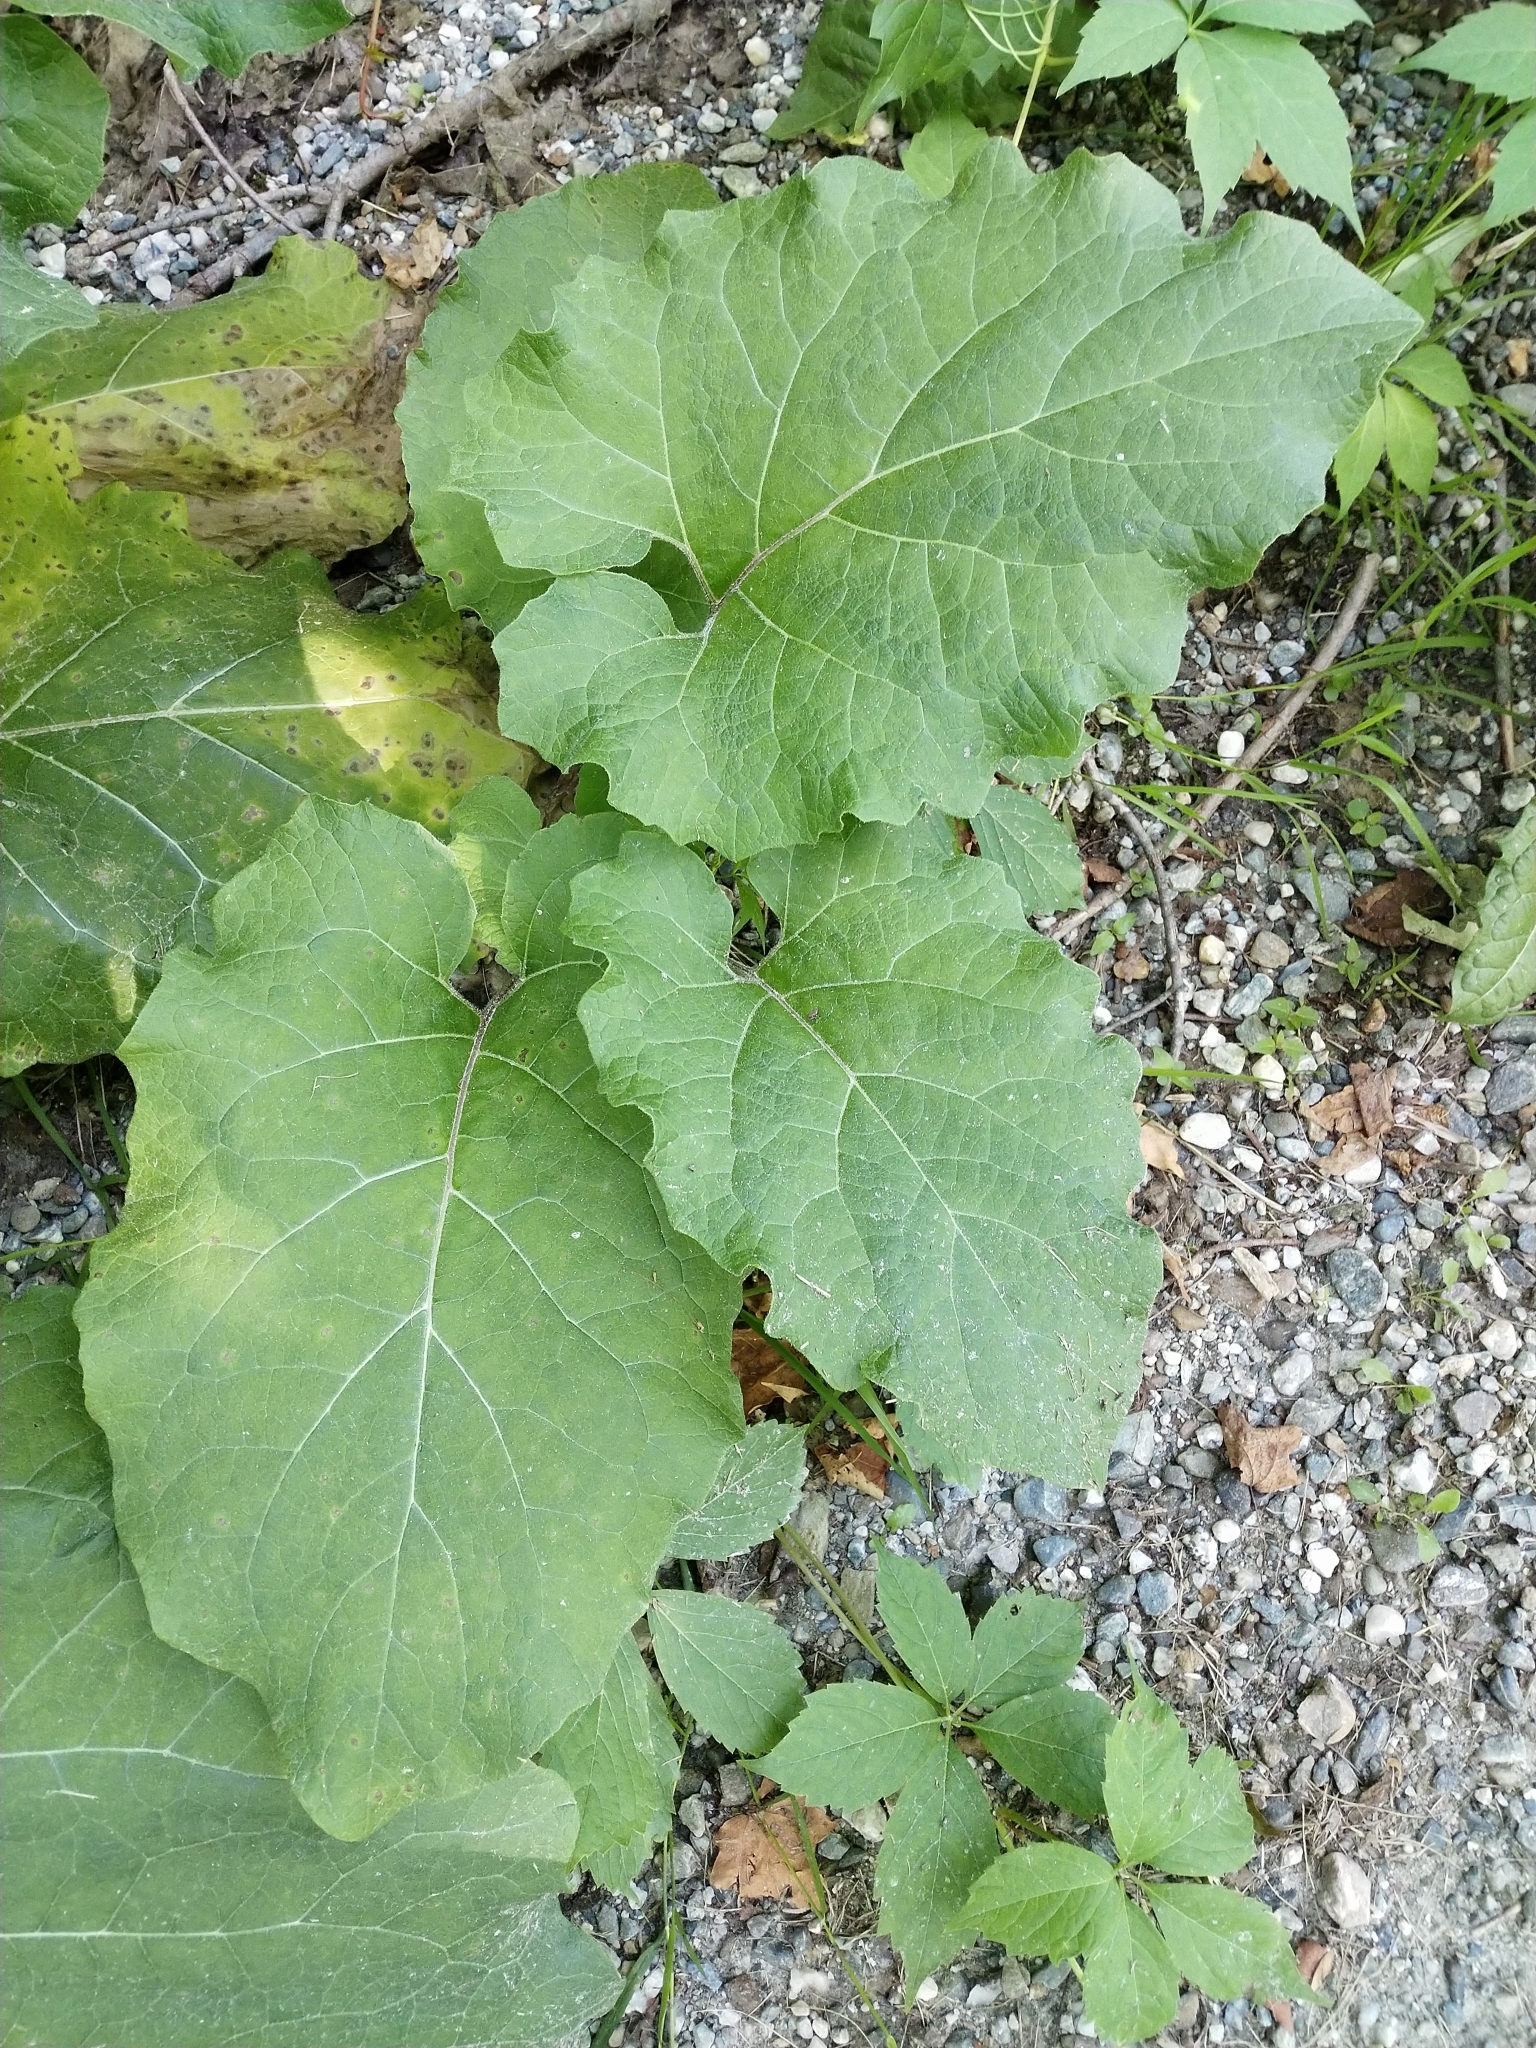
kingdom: Plantae
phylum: Tracheophyta
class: Magnoliopsida
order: Asterales
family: Asteraceae
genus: Arctium
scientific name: Arctium
